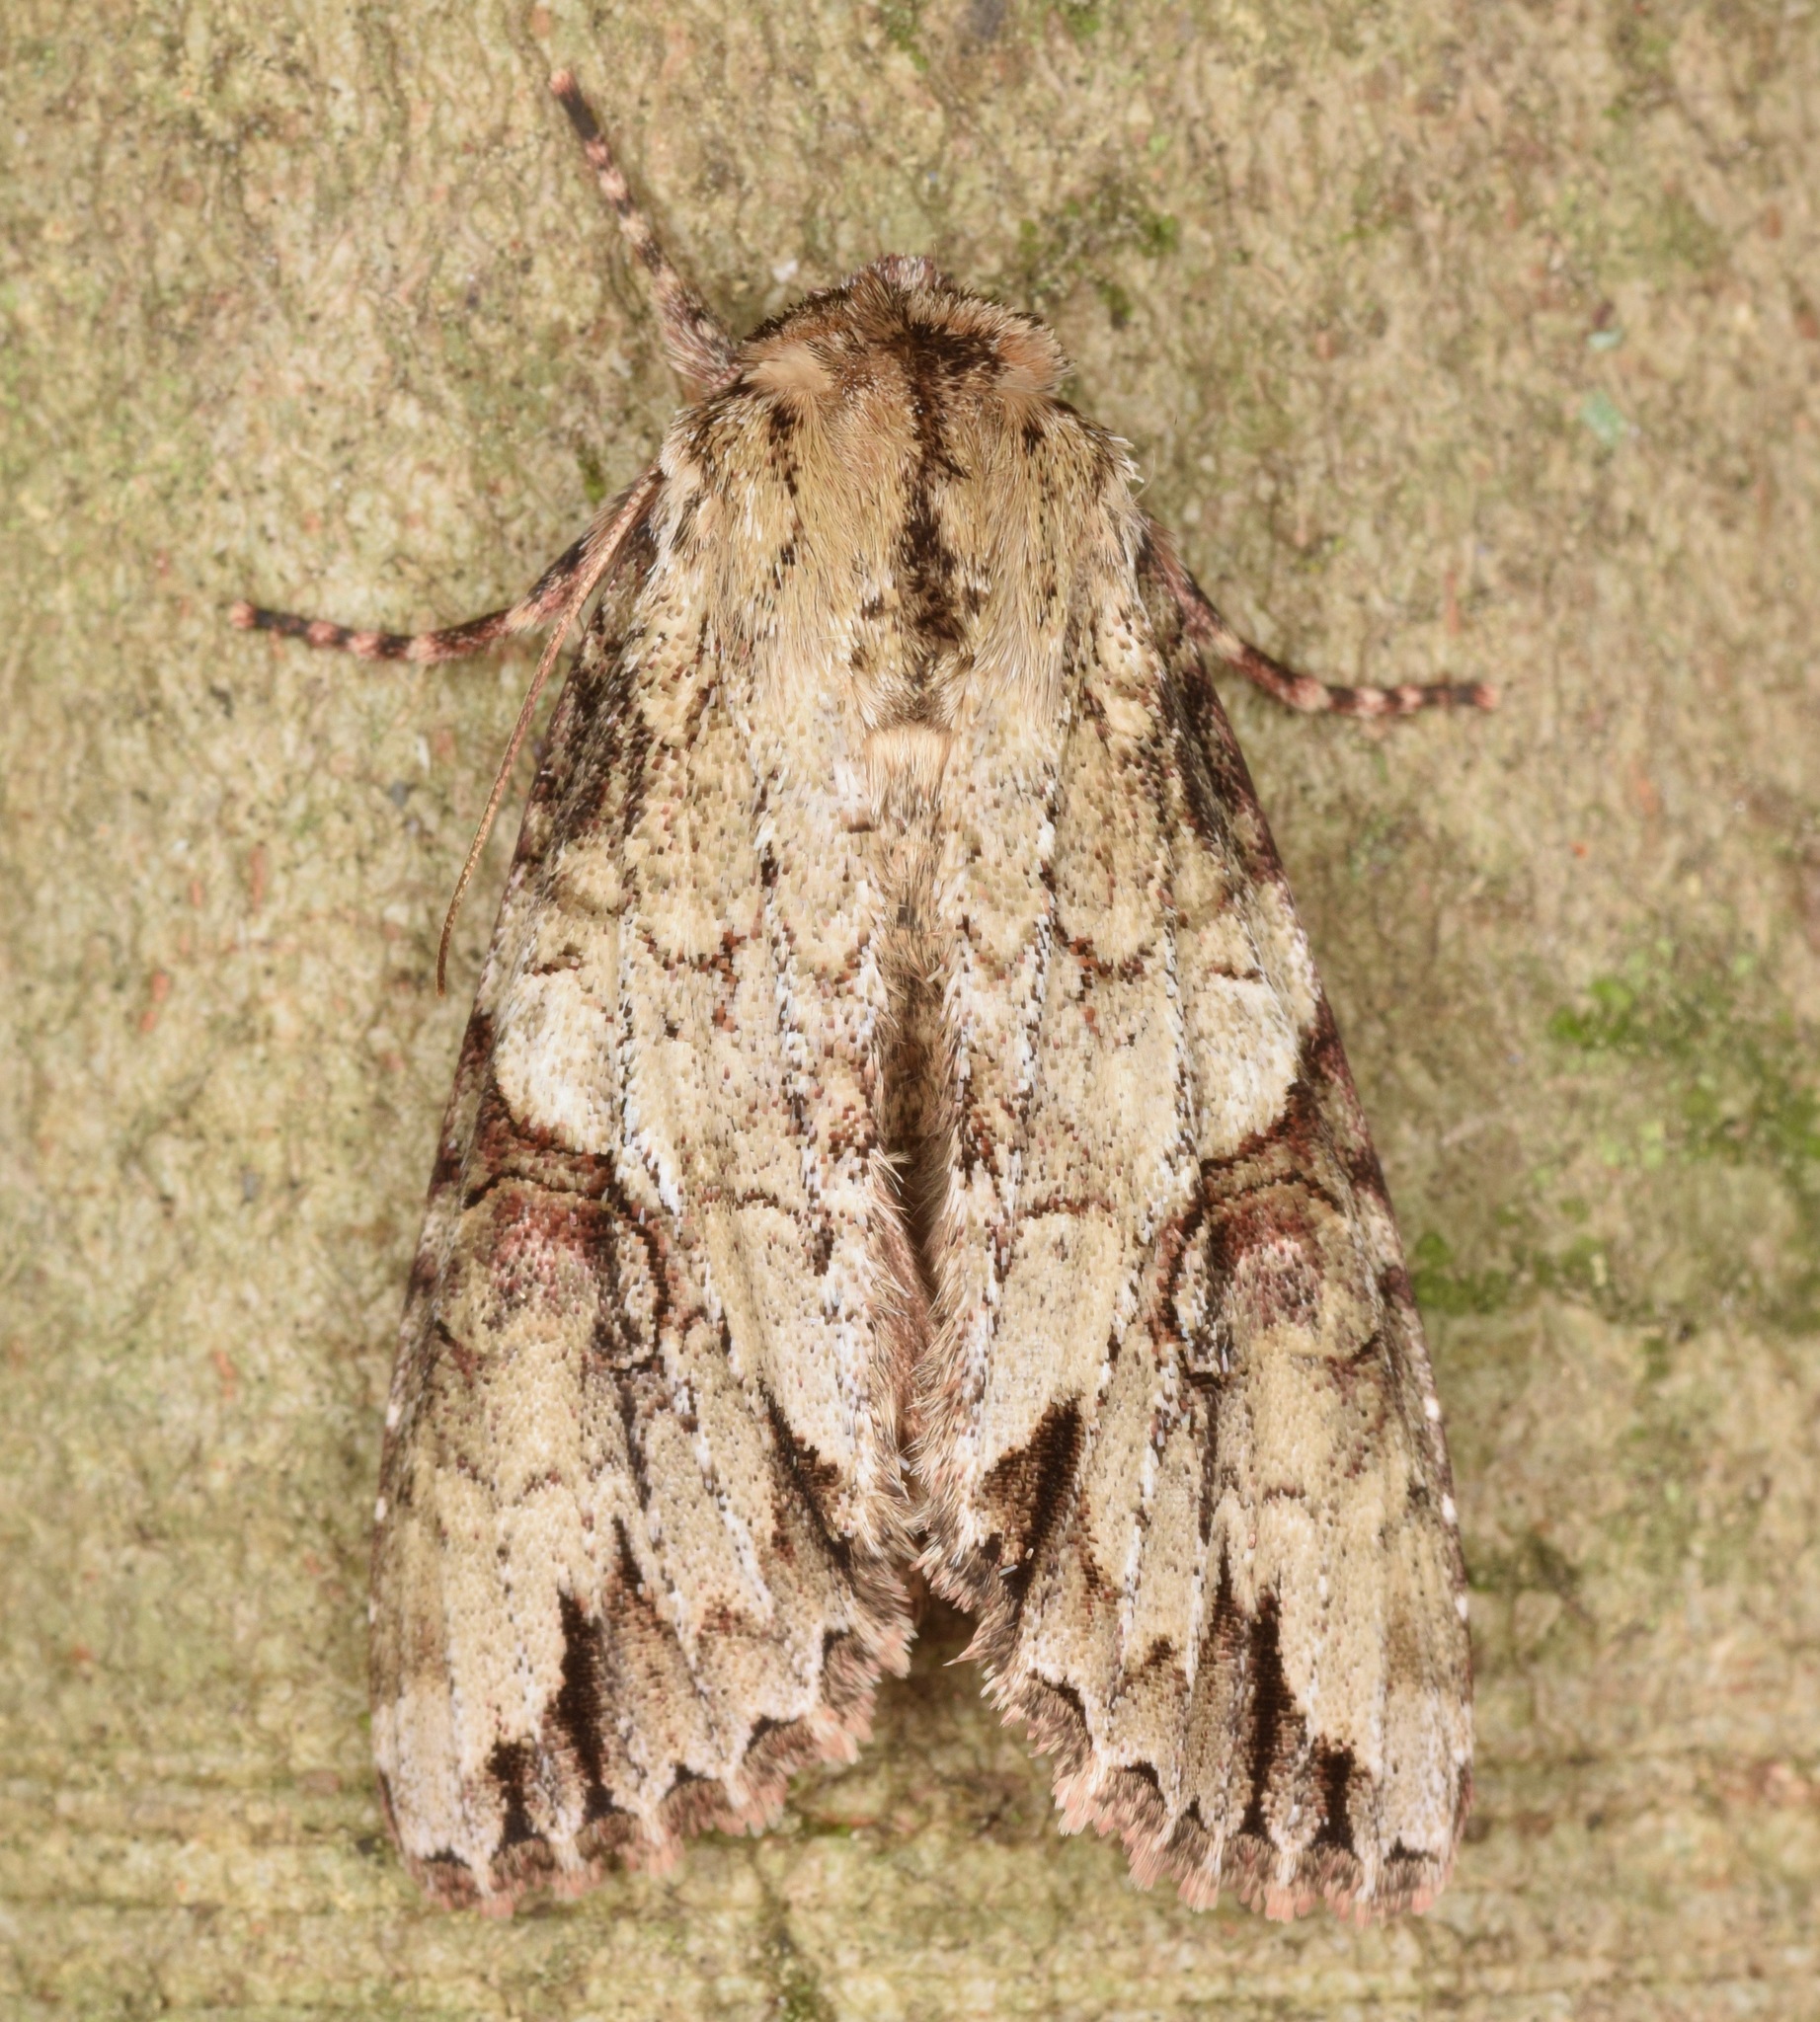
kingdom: Animalia
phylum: Arthropoda
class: Insecta
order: Lepidoptera
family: Noctuidae
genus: Achatia
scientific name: Achatia latex
